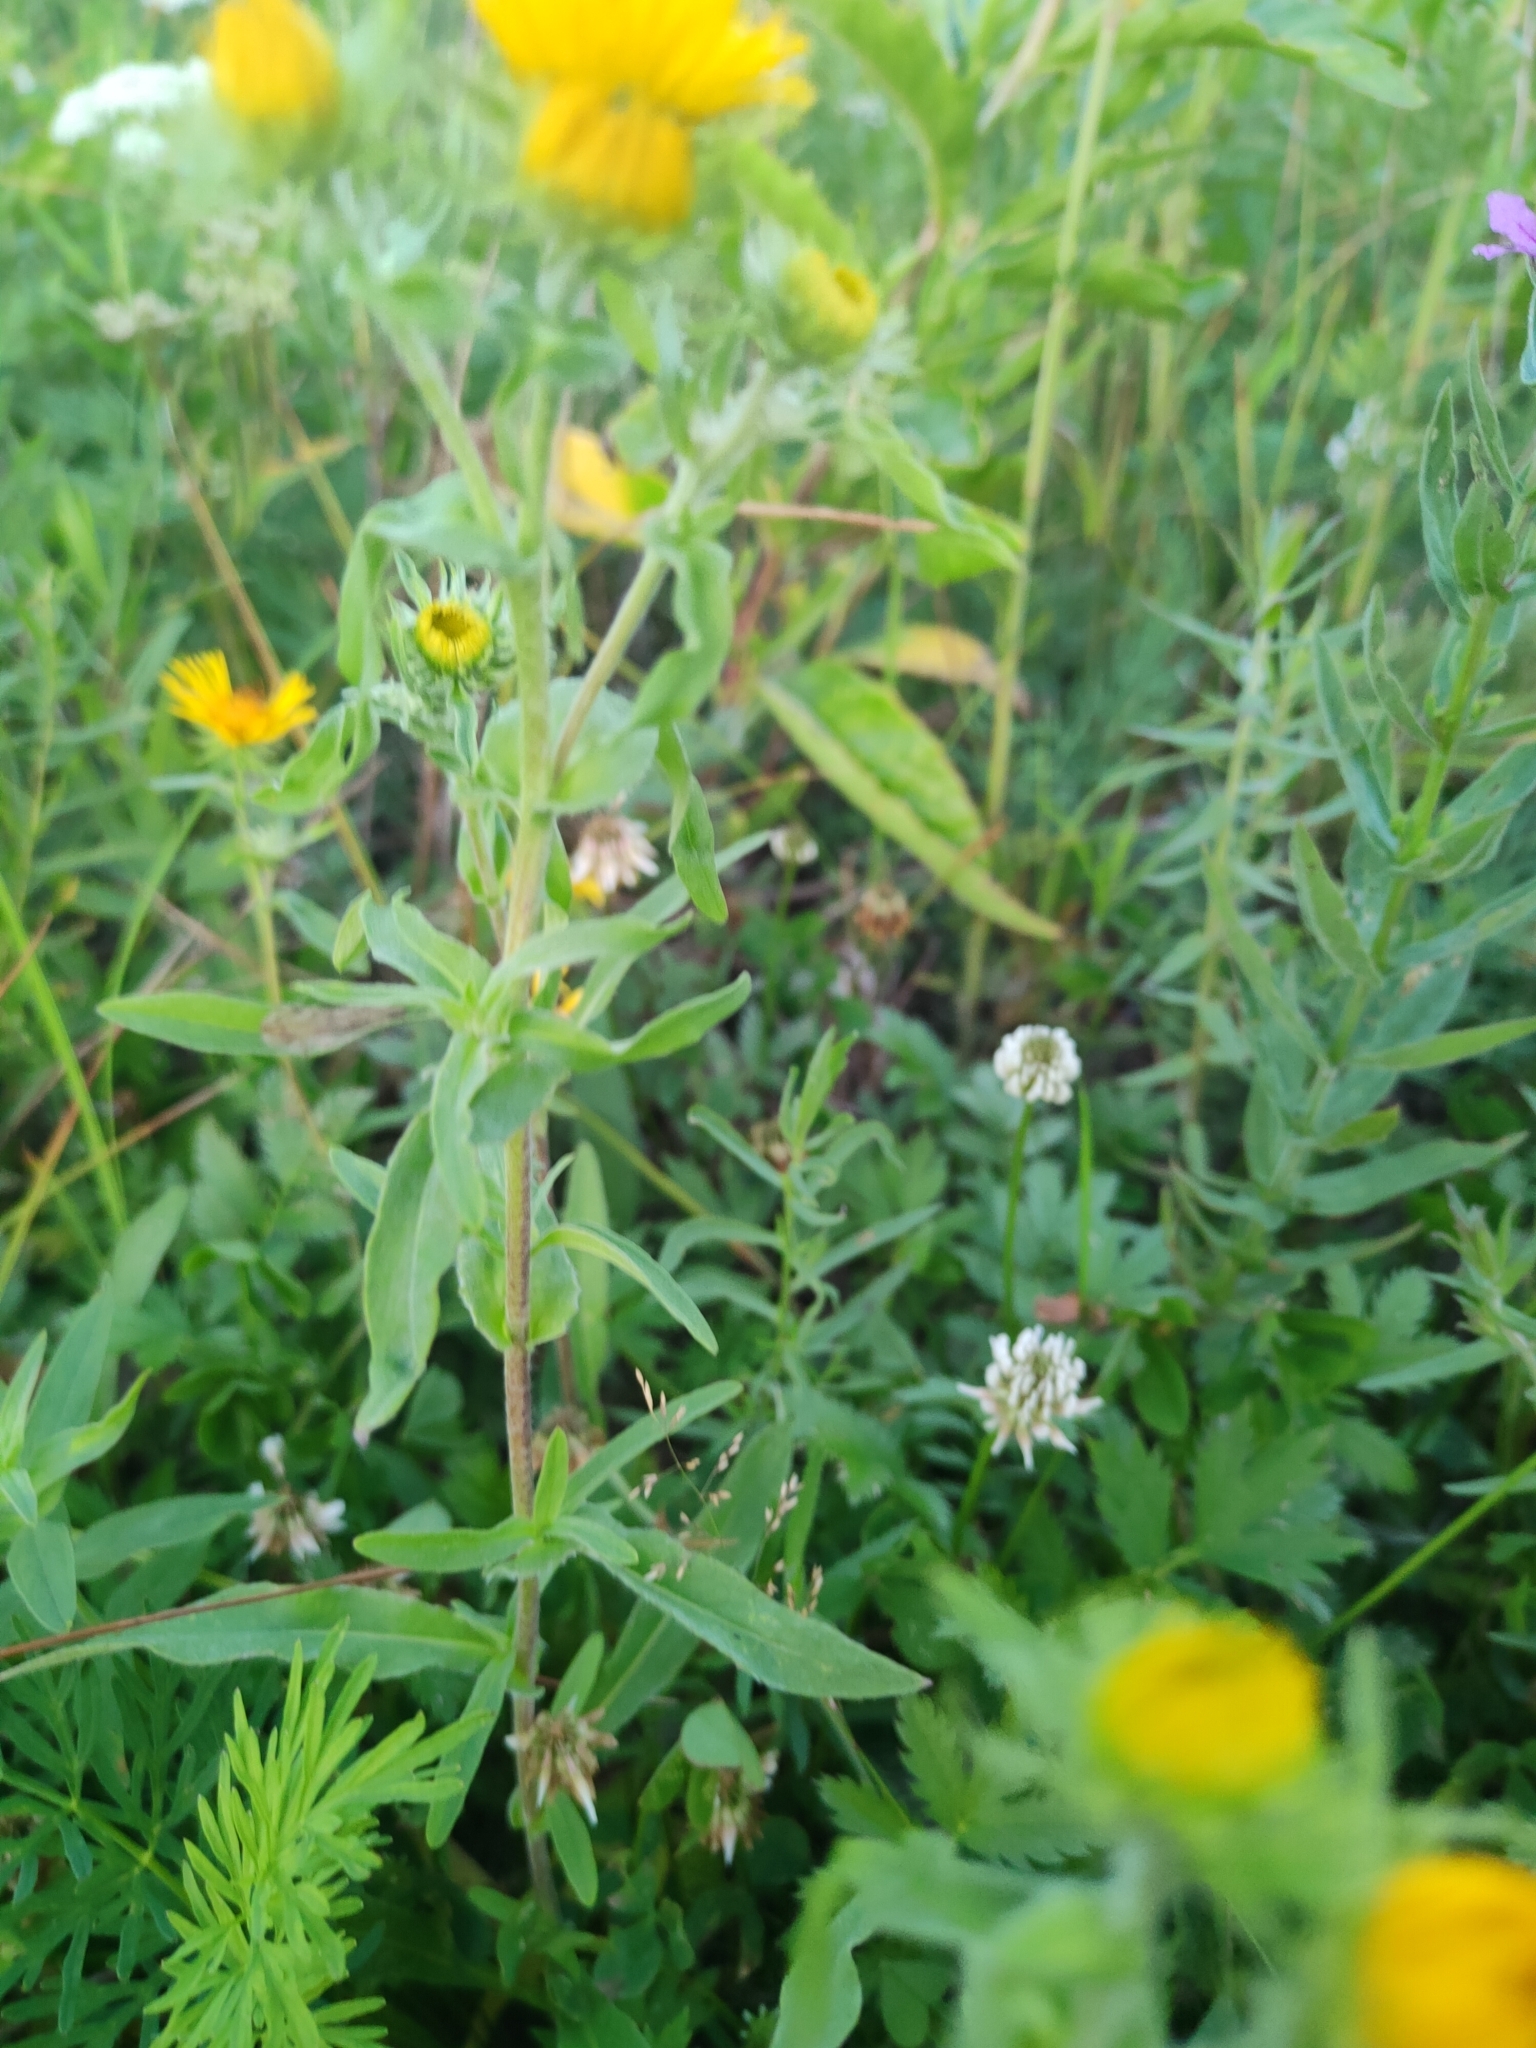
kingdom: Plantae
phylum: Tracheophyta
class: Magnoliopsida
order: Asterales
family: Asteraceae
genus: Pentanema
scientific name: Pentanema britannicum
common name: British elecampane
